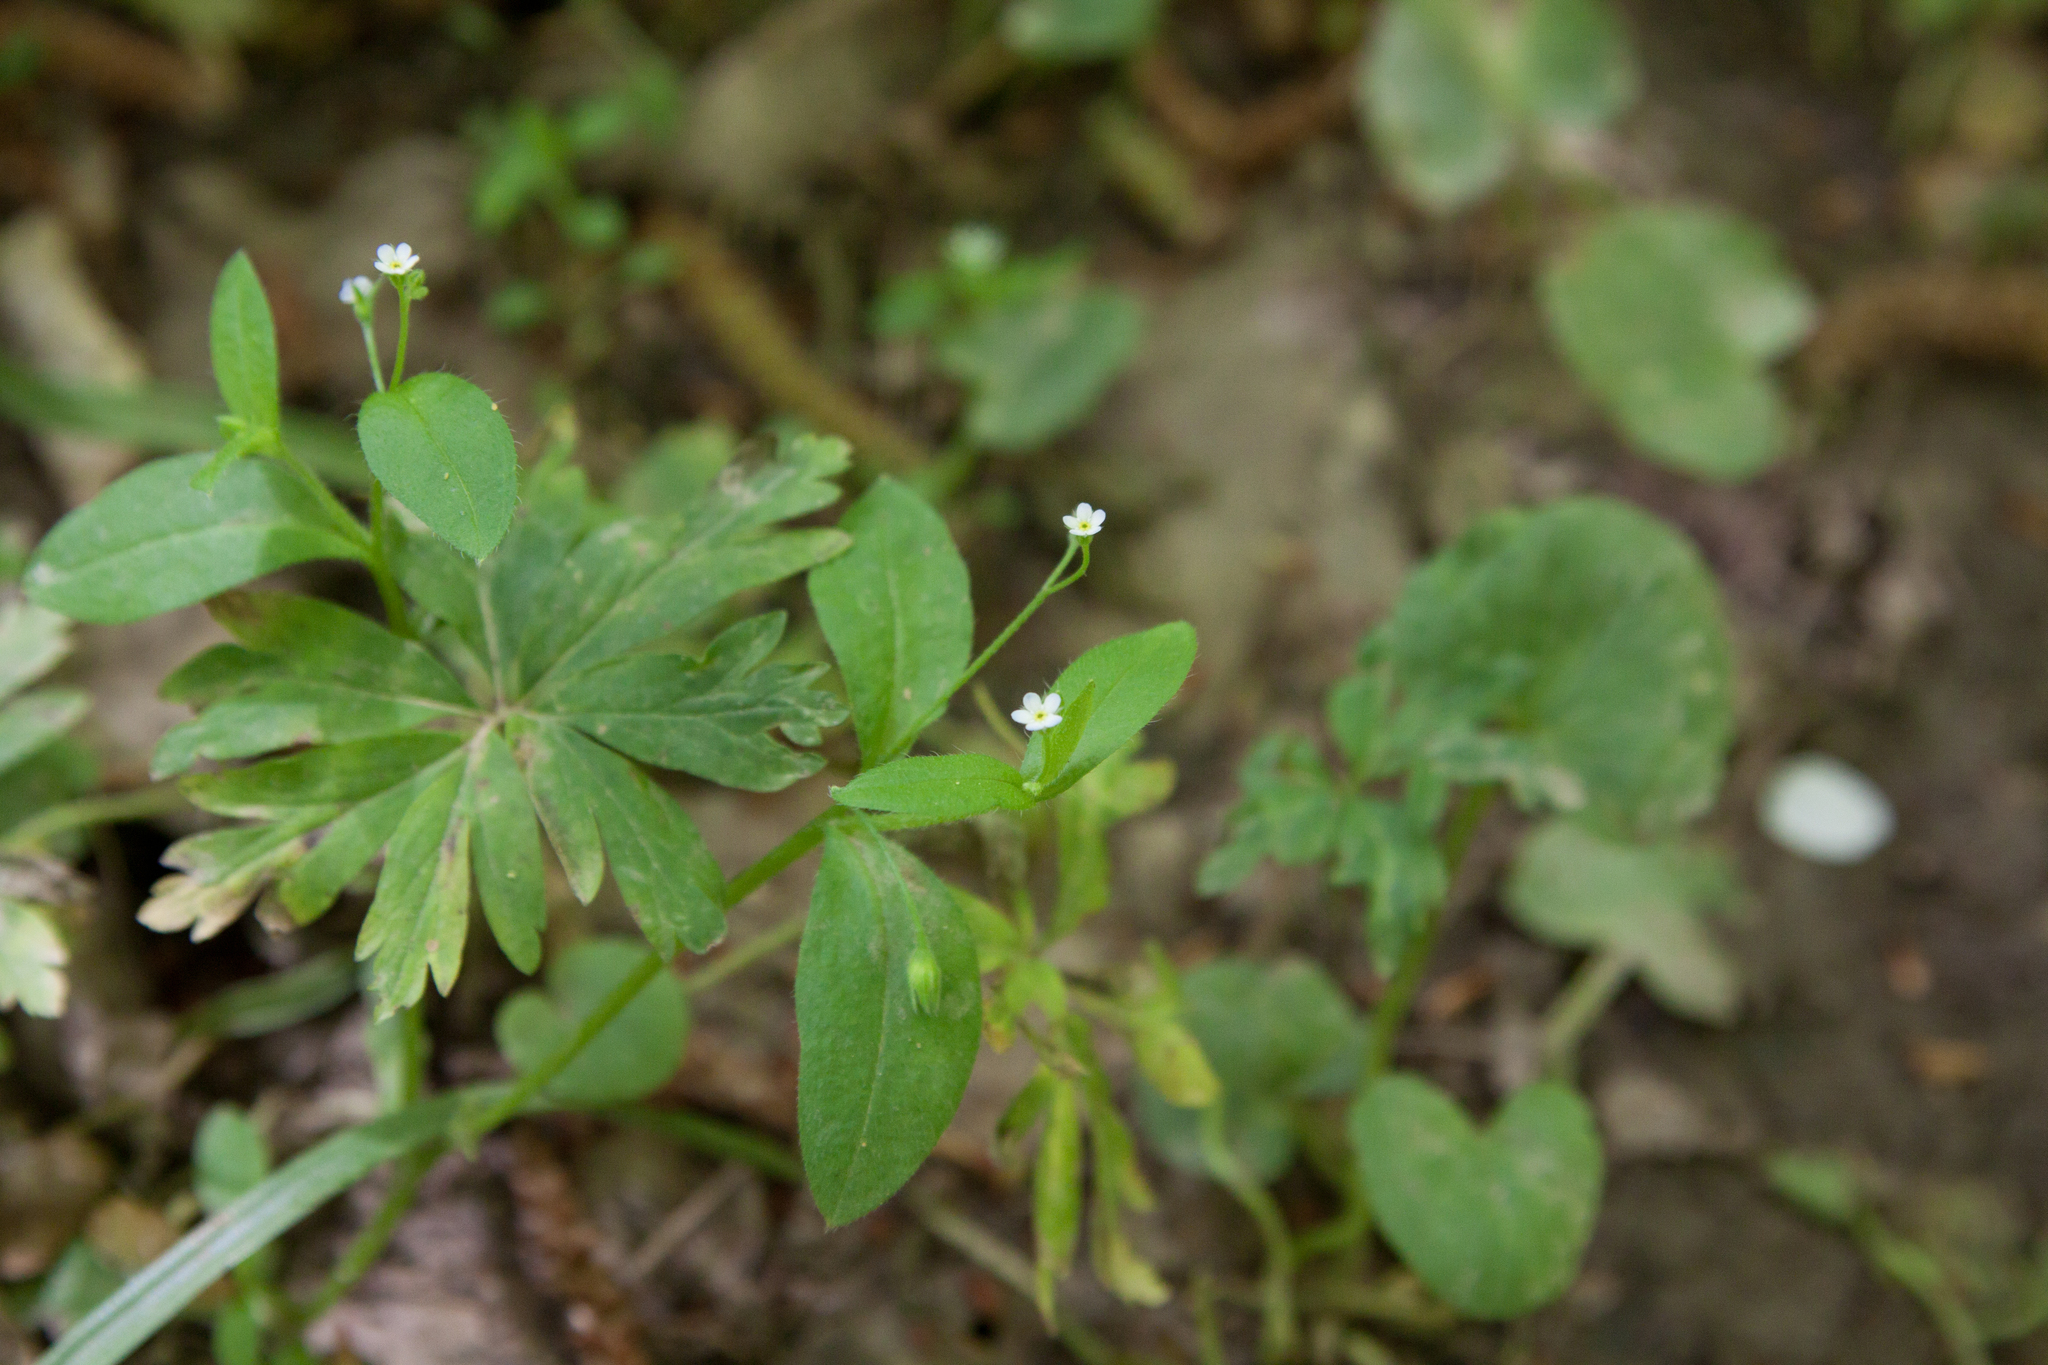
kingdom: Plantae
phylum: Tracheophyta
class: Magnoliopsida
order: Boraginales
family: Boraginaceae
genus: Myosotis
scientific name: Myosotis sparsiflora
